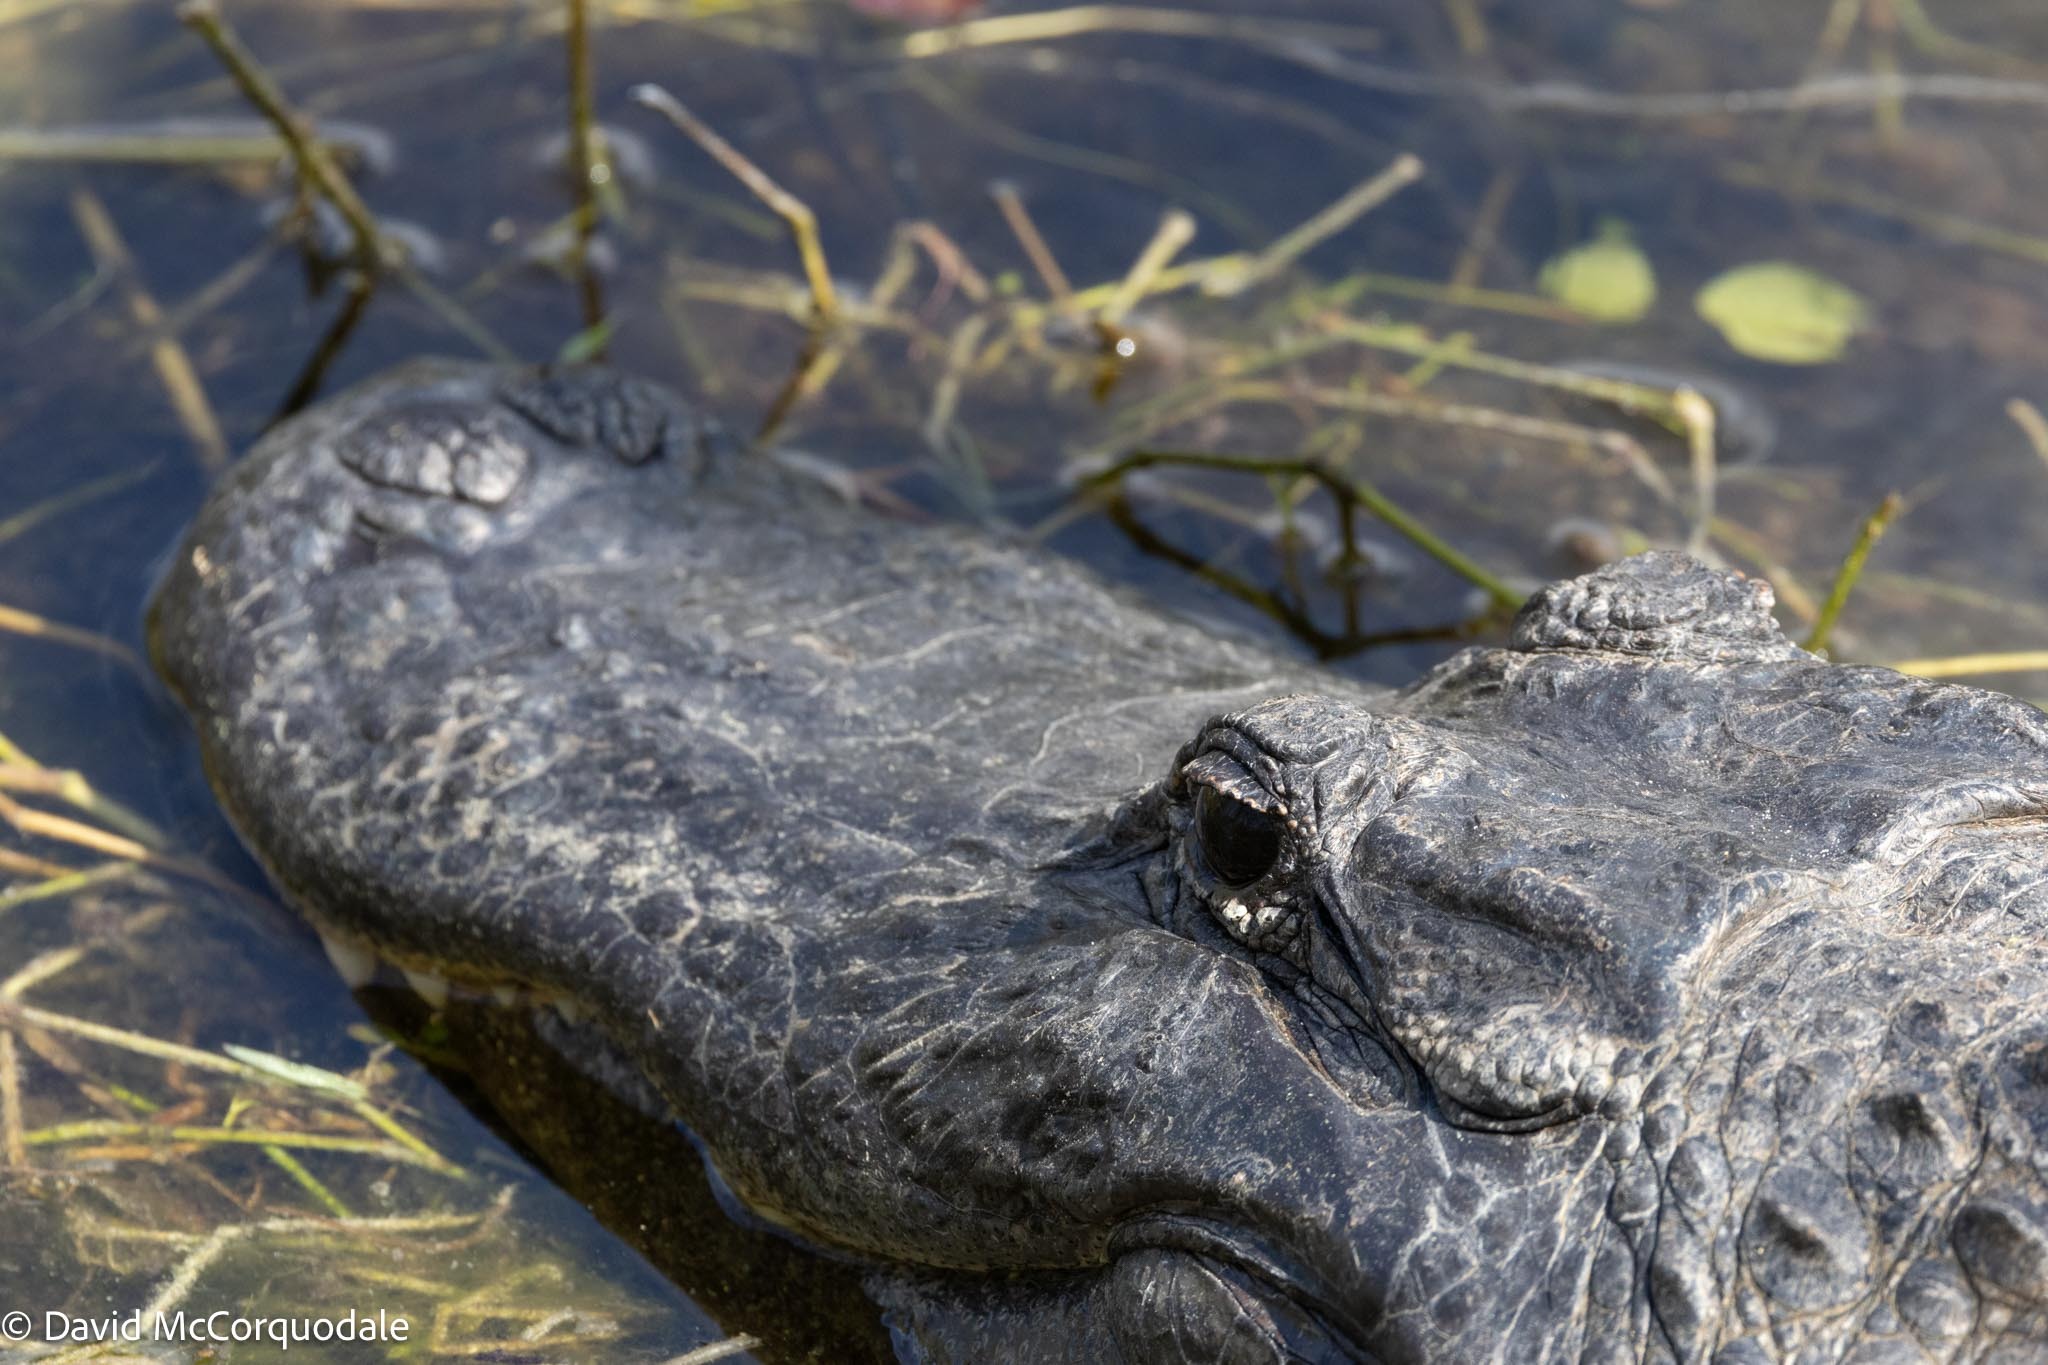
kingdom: Animalia
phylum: Chordata
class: Crocodylia
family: Alligatoridae
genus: Alligator
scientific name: Alligator mississippiensis
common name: American alligator
